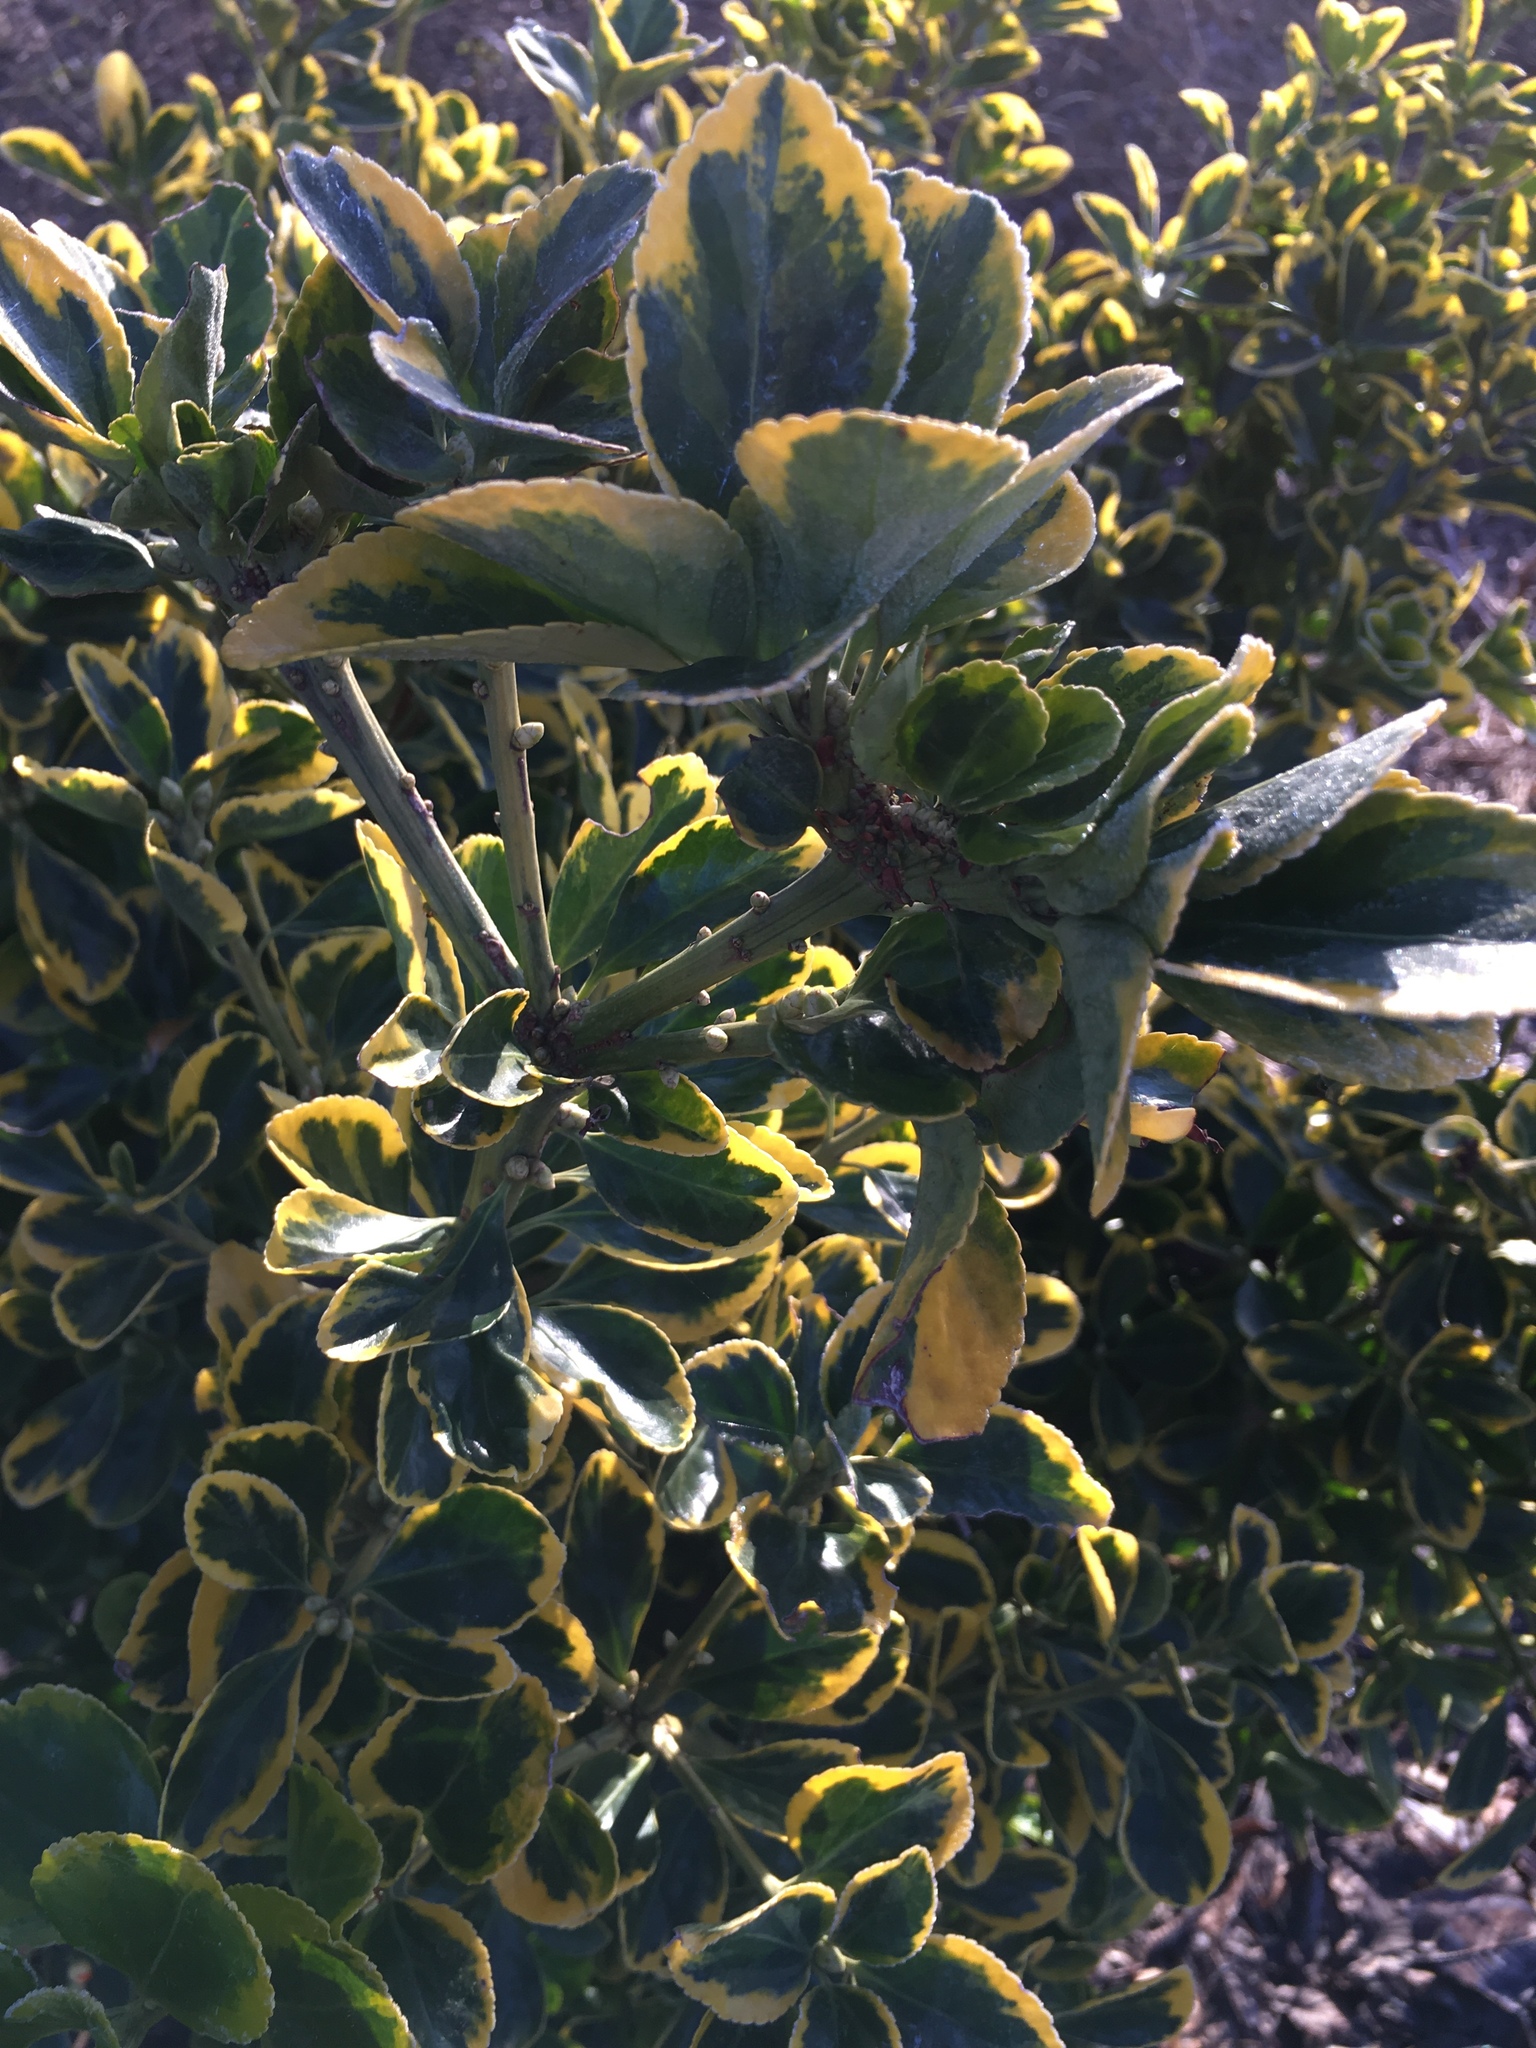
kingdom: Plantae
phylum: Tracheophyta
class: Magnoliopsida
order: Celastrales
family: Celastraceae
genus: Euonymus
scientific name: Euonymus japonicus
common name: Japanese spindletree
